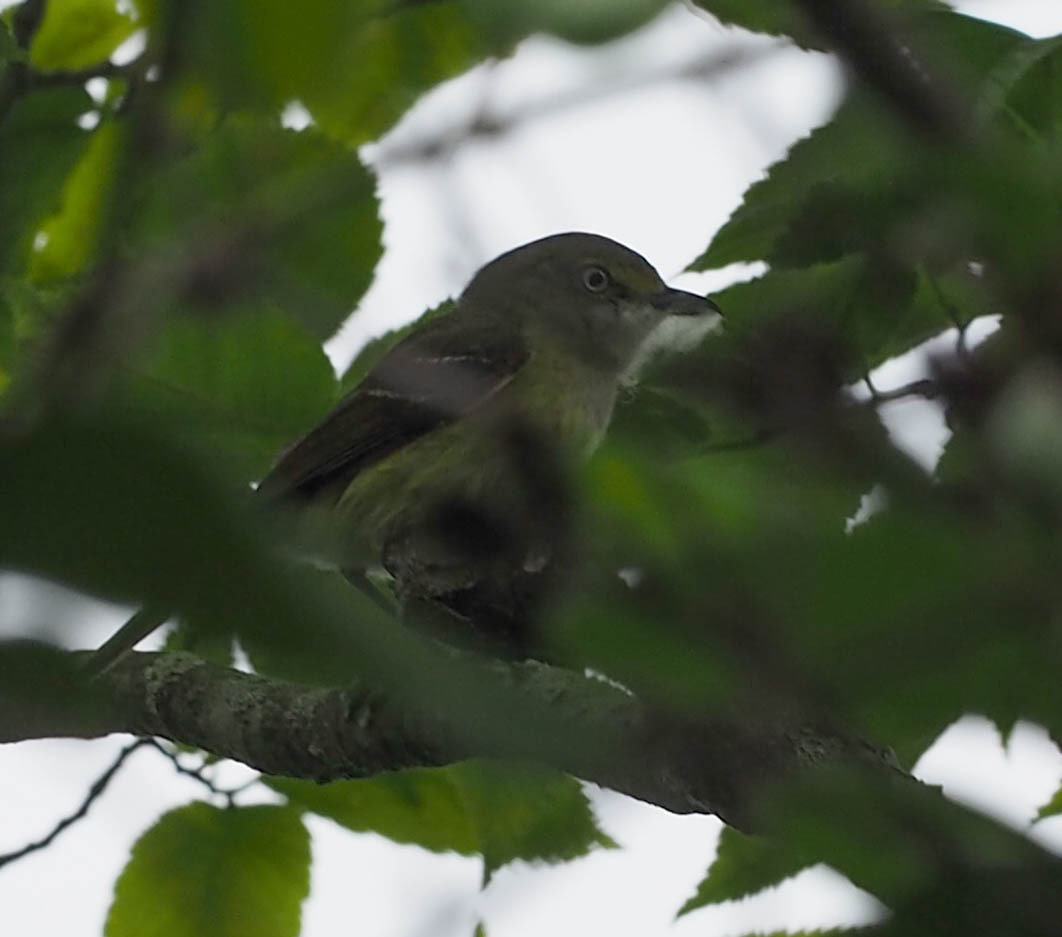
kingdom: Animalia
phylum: Chordata
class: Aves
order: Passeriformes
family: Vireonidae
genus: Vireo
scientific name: Vireo griseus
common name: White-eyed vireo
